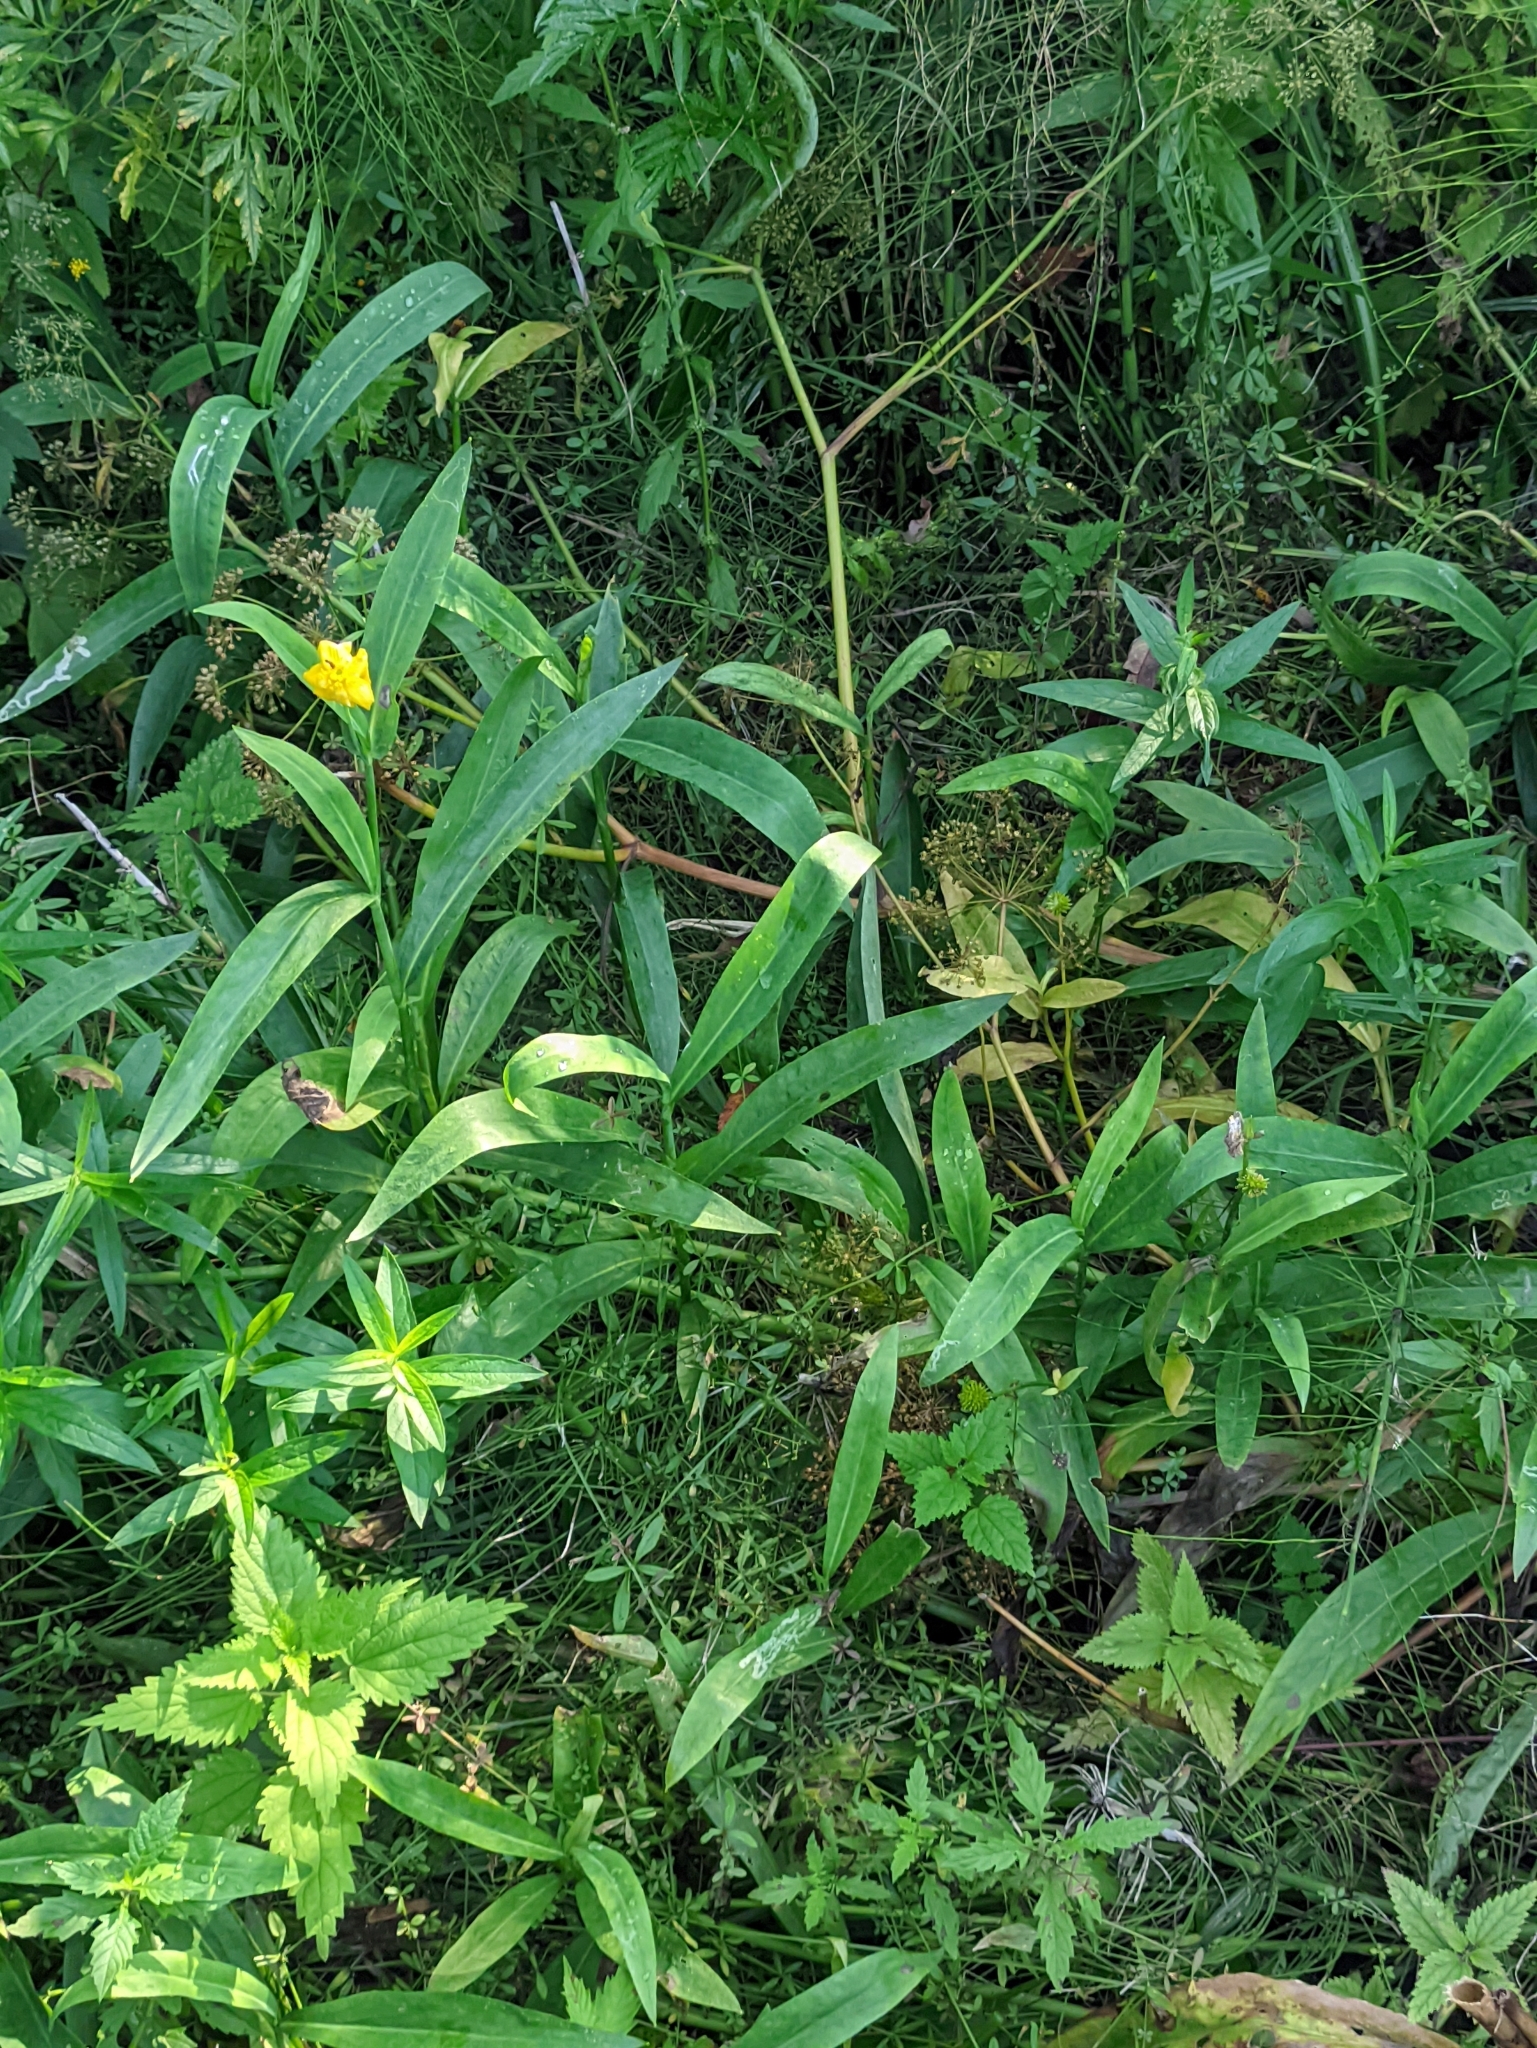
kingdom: Plantae
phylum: Tracheophyta
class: Magnoliopsida
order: Ranunculales
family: Ranunculaceae
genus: Ranunculus
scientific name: Ranunculus lingua
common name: Greater spearwort
